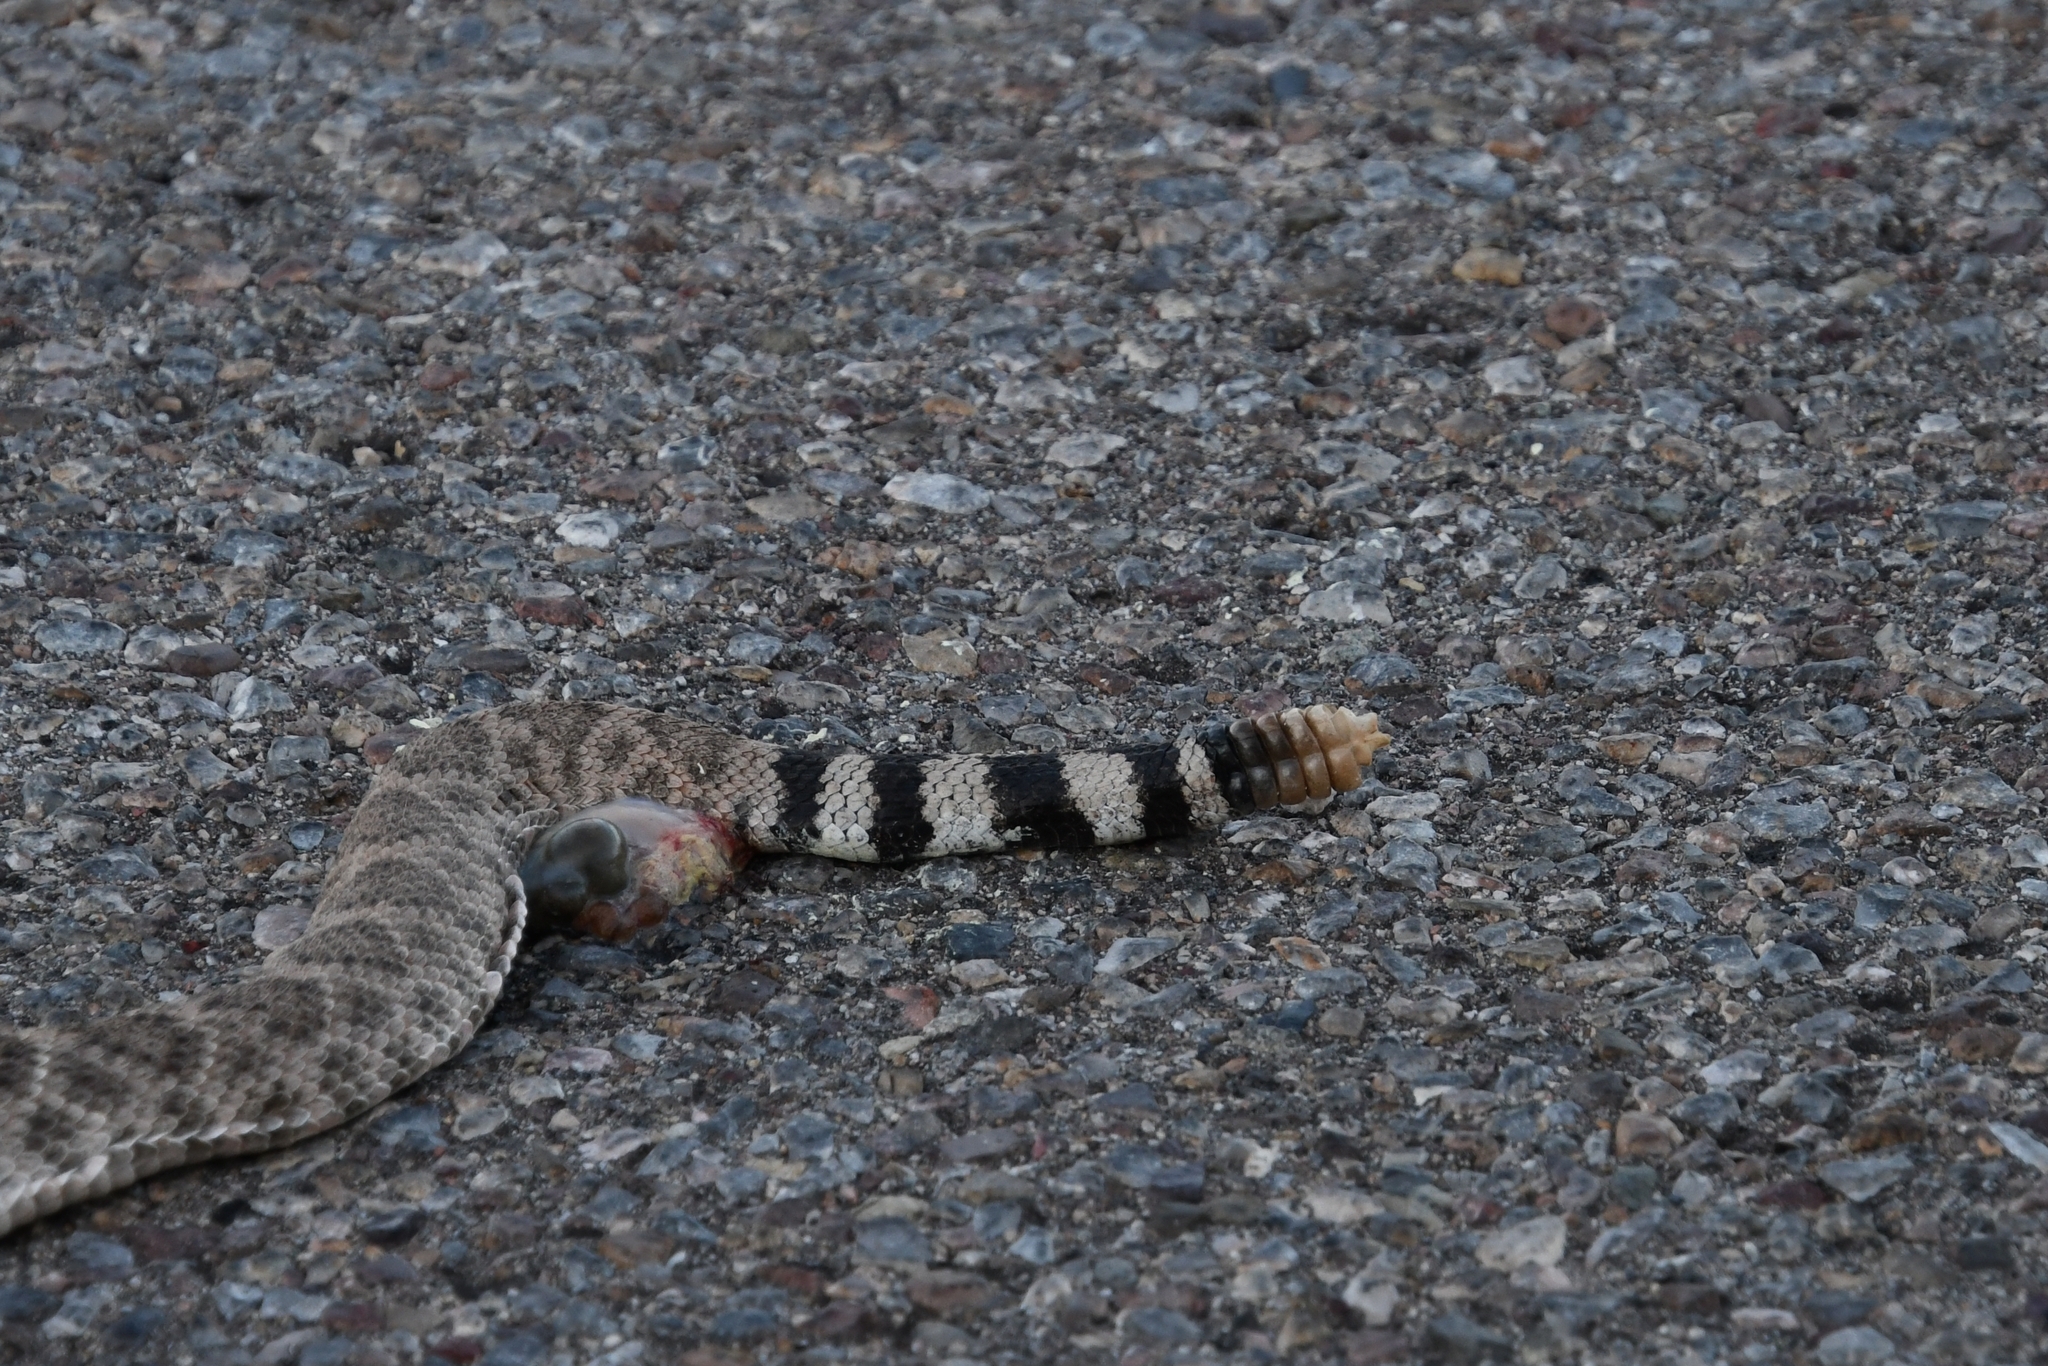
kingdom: Animalia
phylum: Chordata
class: Squamata
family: Viperidae
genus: Crotalus
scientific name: Crotalus atrox
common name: Western diamond-backed rattlesnake
